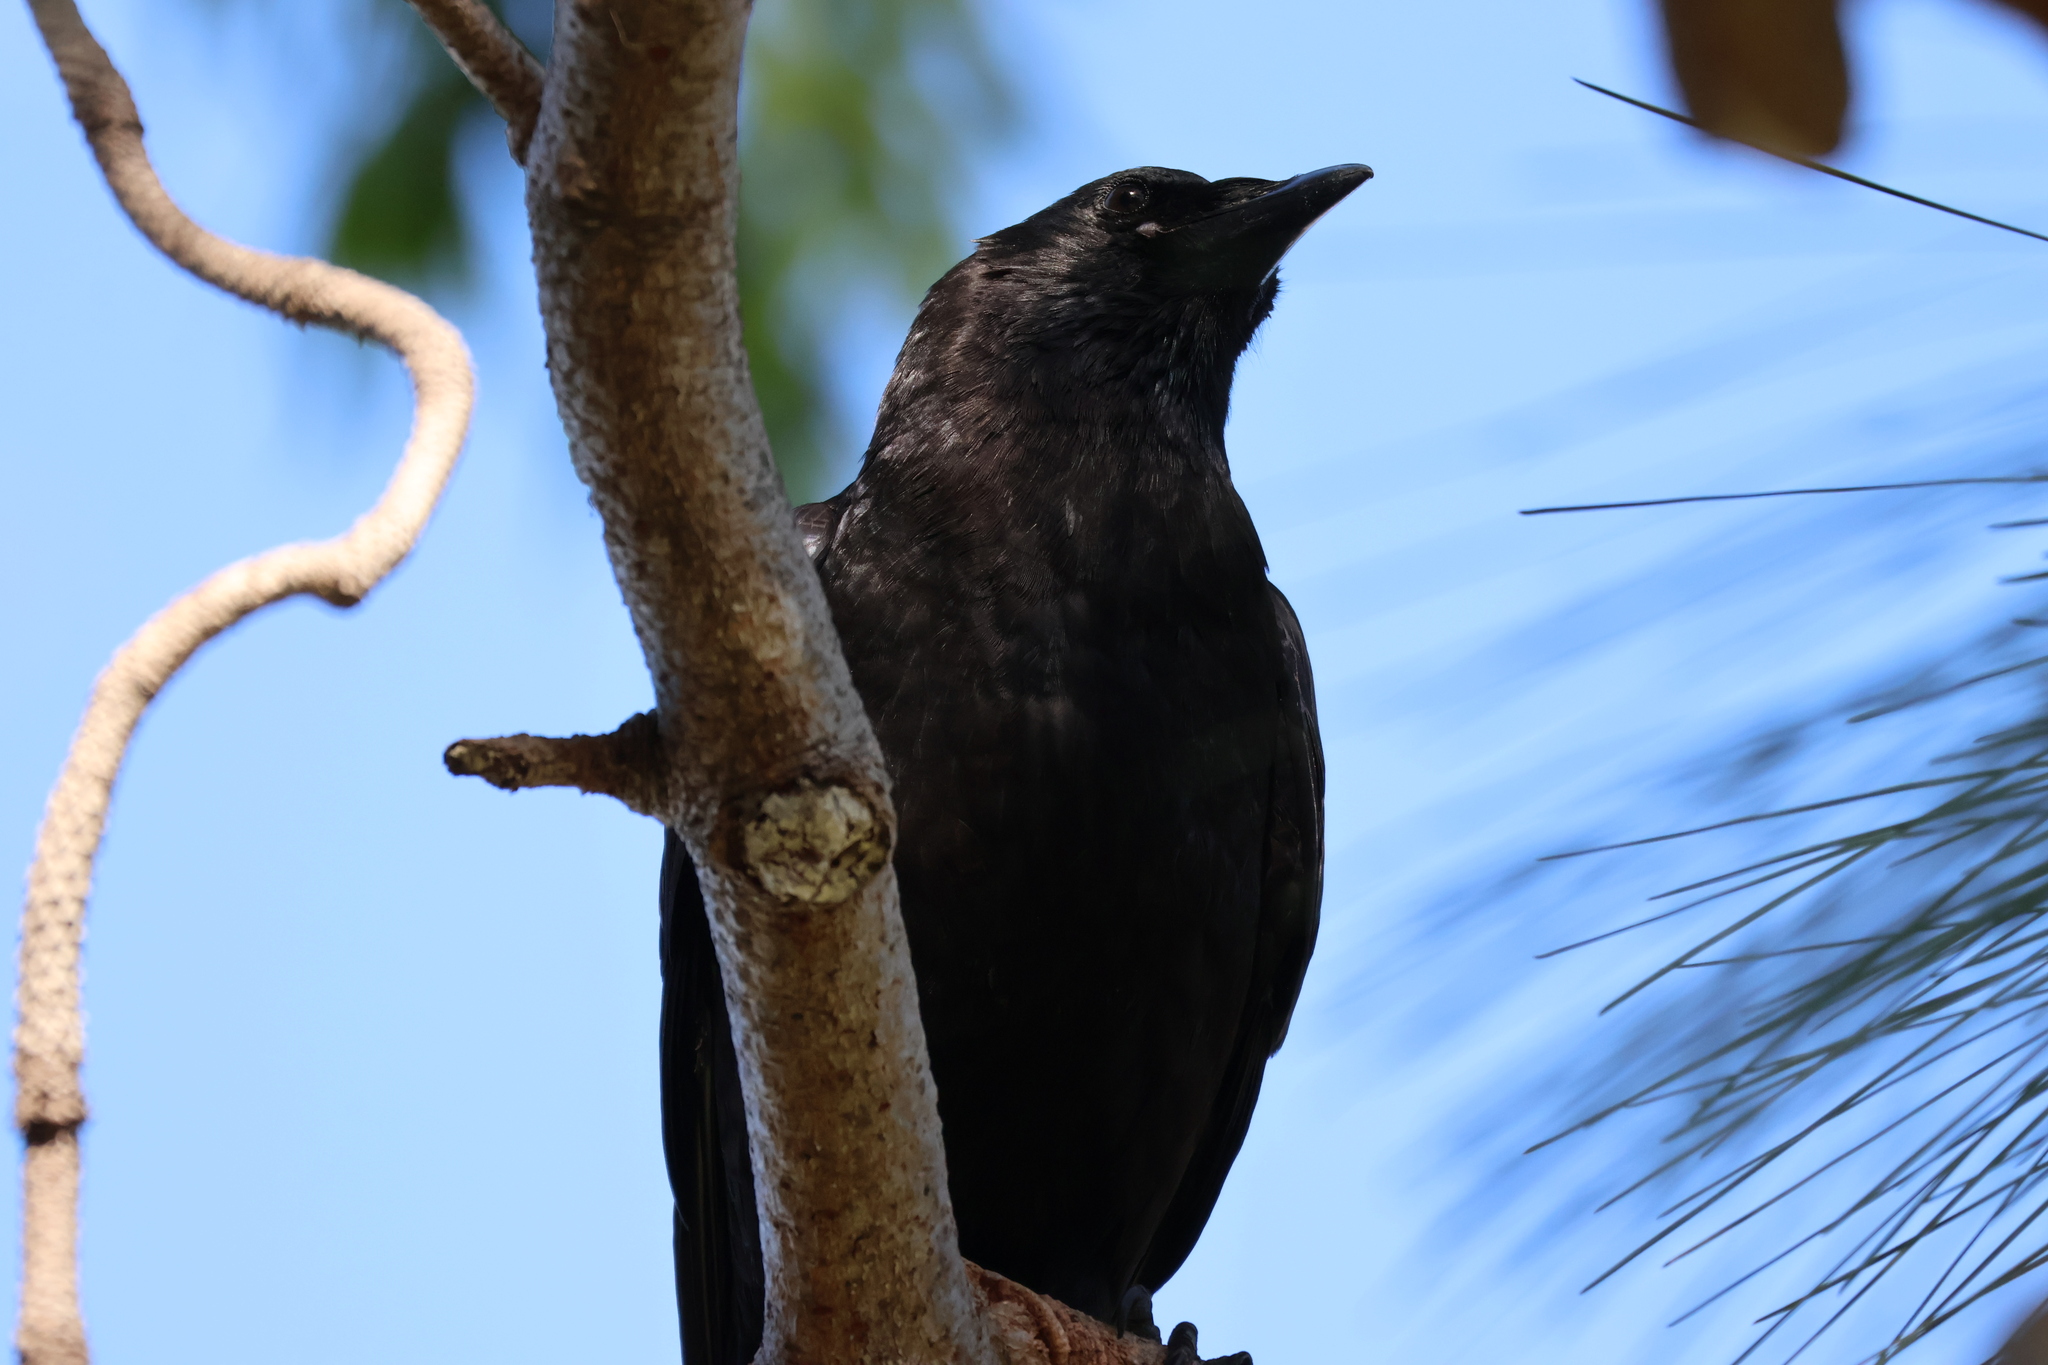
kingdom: Animalia
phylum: Chordata
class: Aves
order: Passeriformes
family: Corvidae
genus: Corvus
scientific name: Corvus brachyrhynchos
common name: American crow
